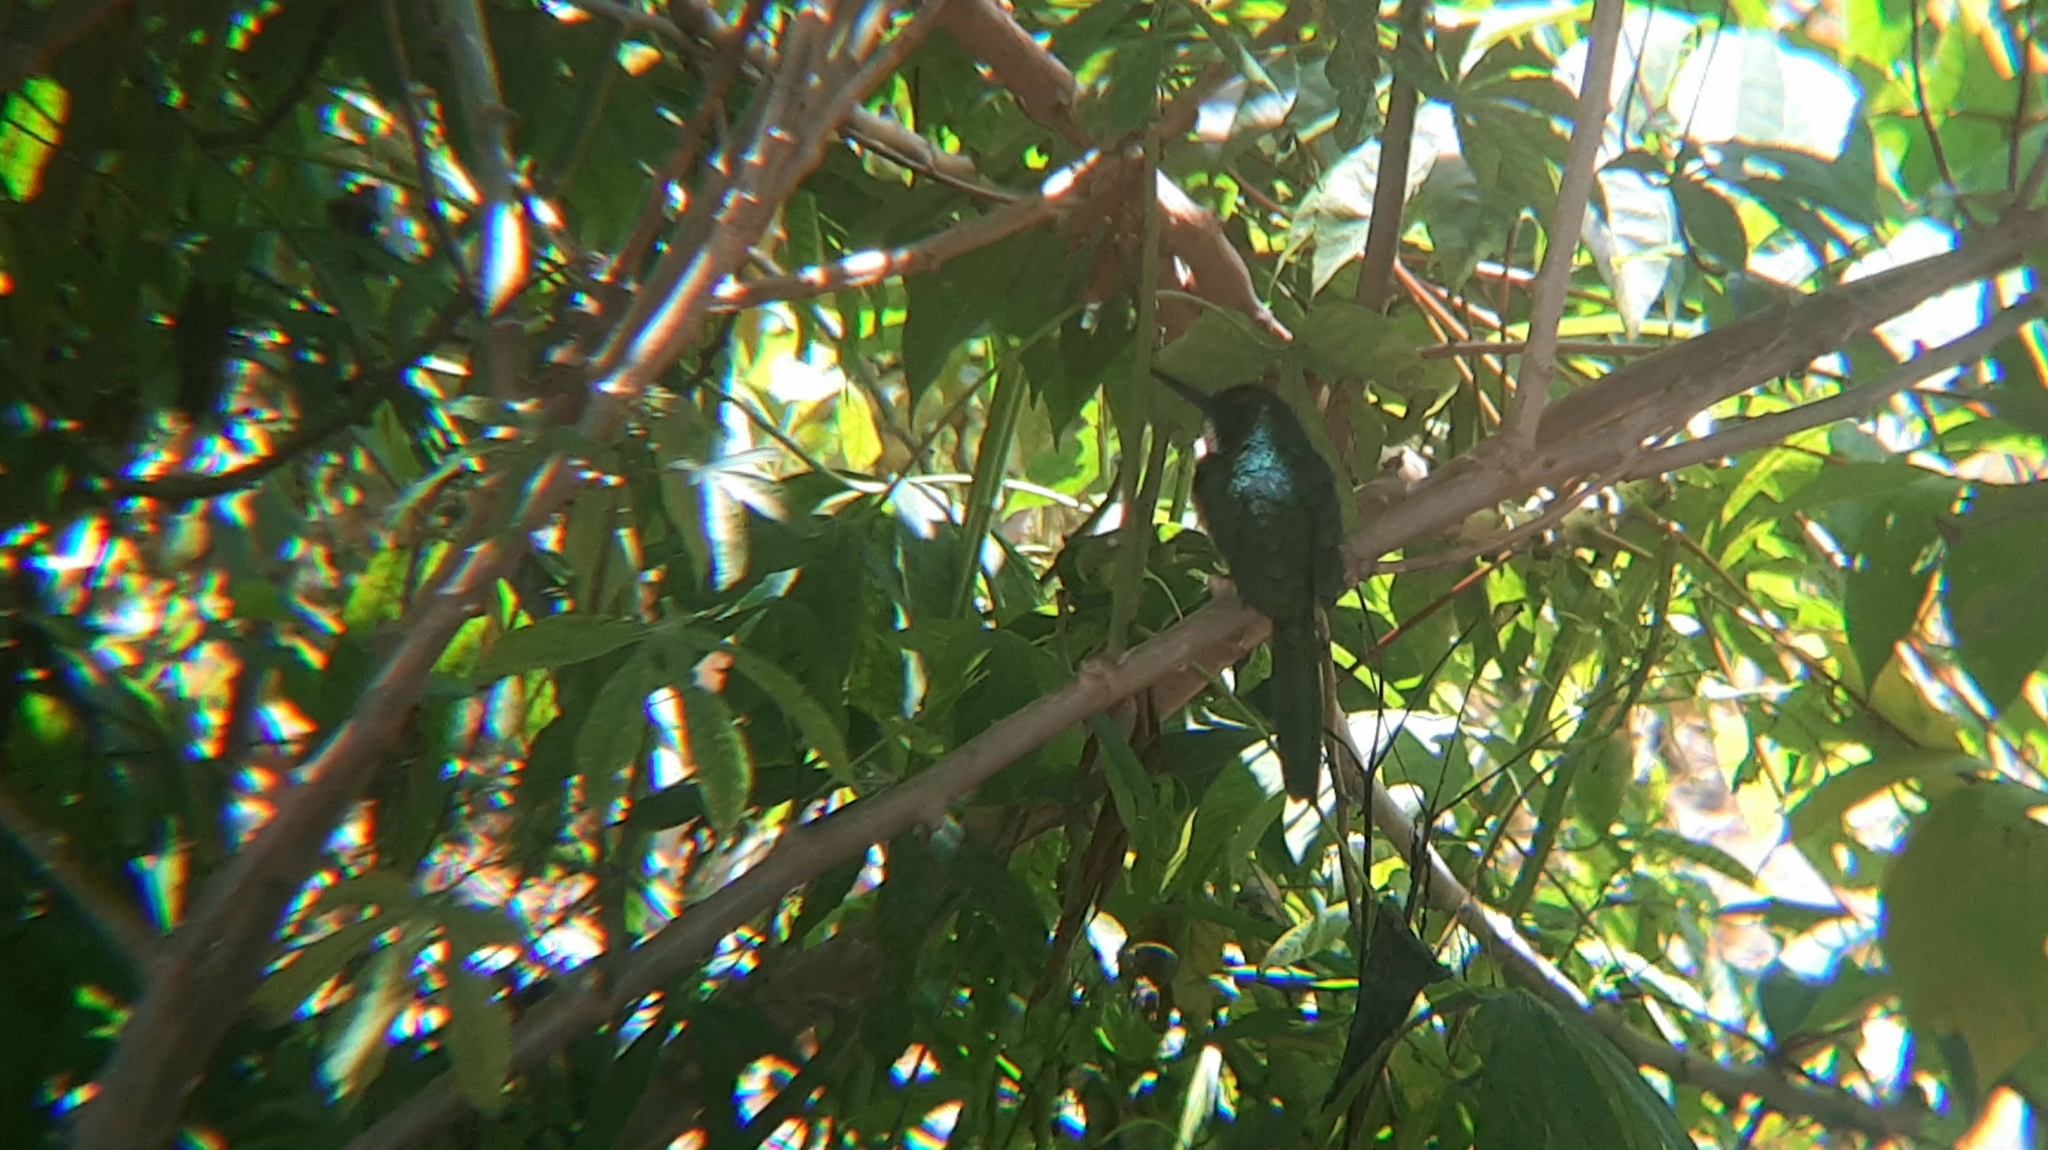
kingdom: Animalia
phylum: Chordata
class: Aves
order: Piciformes
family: Galbulidae
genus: Galbula
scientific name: Galbula ruficauda
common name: Rufous-tailed jacamar
